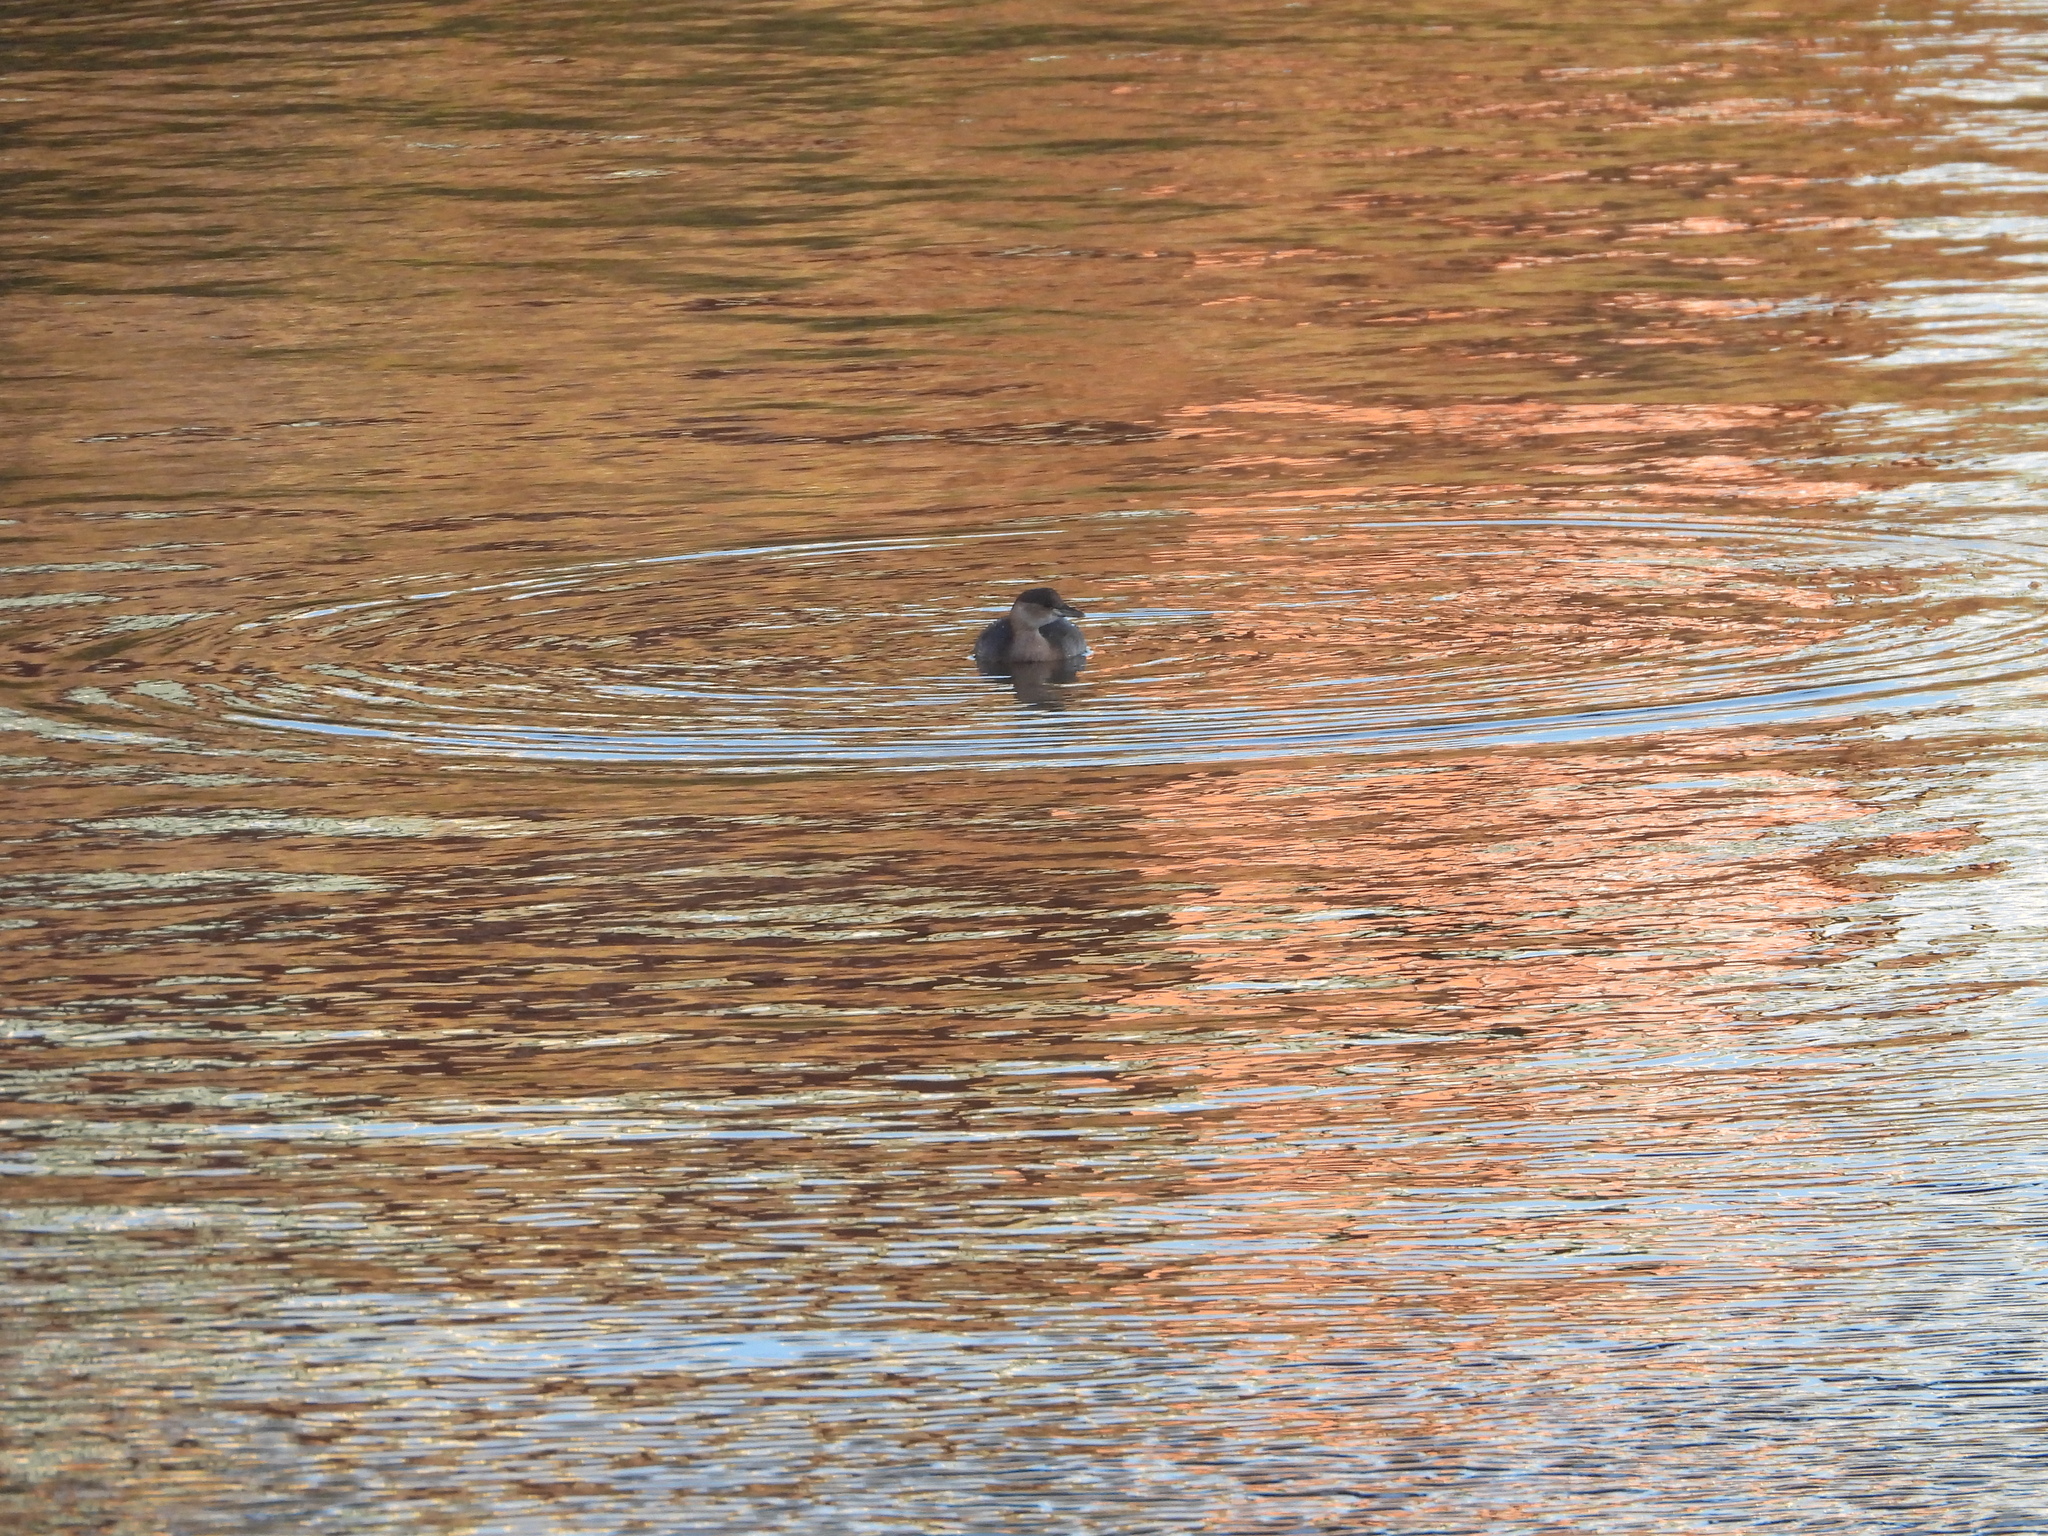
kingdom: Animalia
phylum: Chordata
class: Aves
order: Podicipediformes
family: Podicipedidae
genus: Tachybaptus
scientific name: Tachybaptus ruficollis
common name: Little grebe
